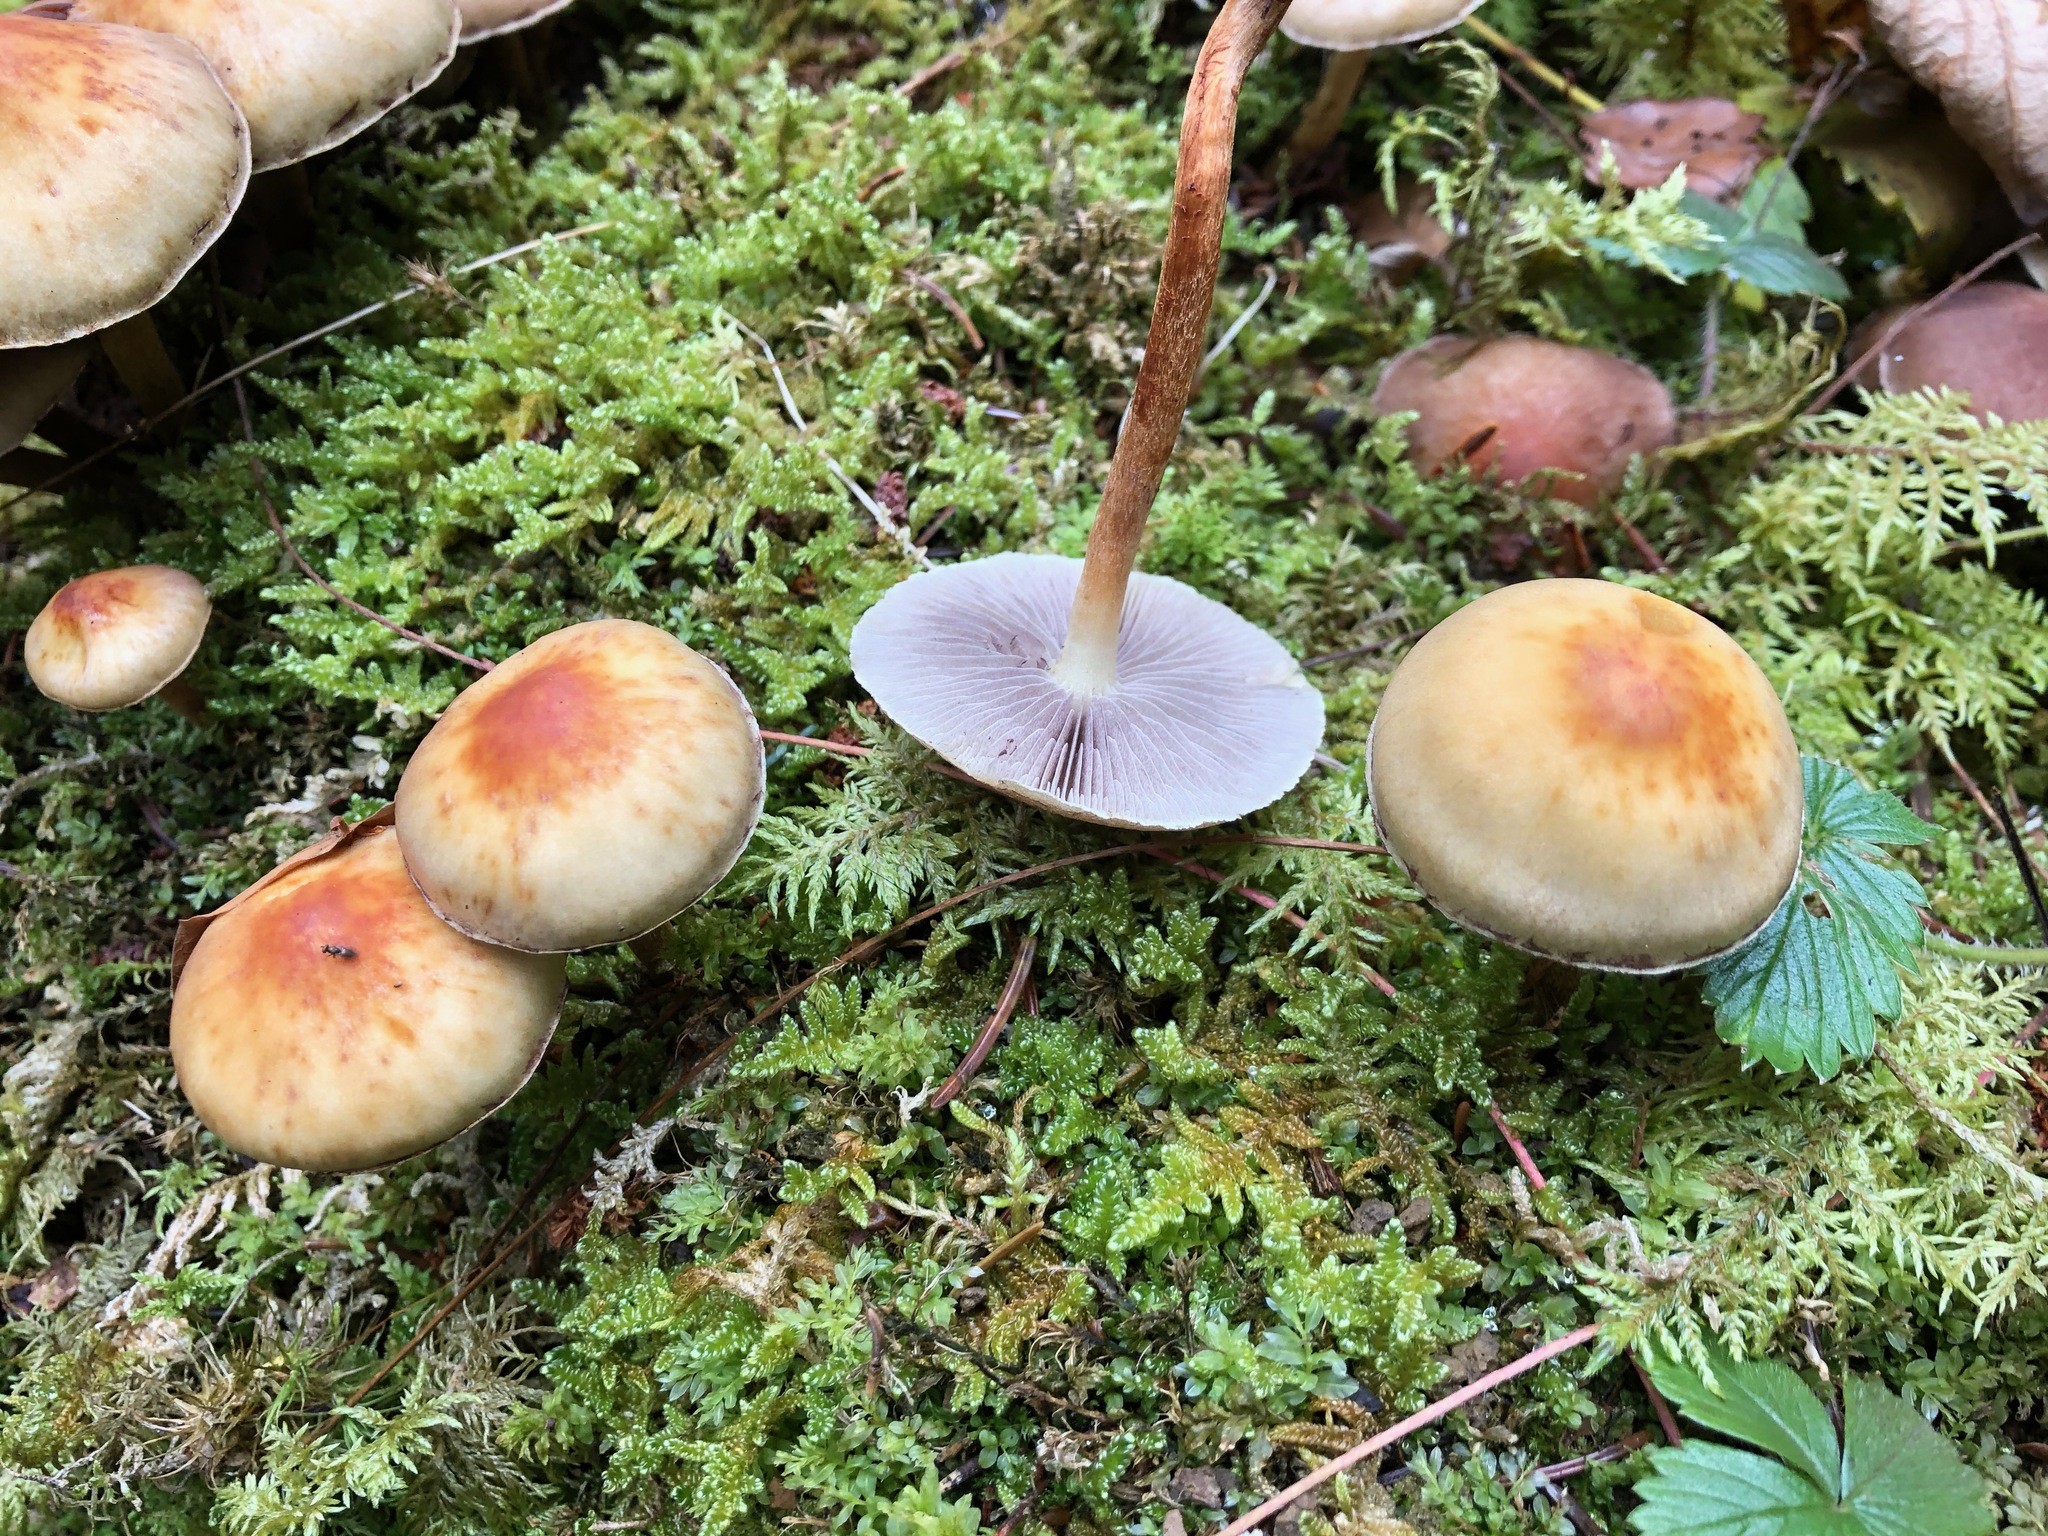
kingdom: Fungi
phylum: Basidiomycota
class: Agaricomycetes
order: Agaricales
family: Strophariaceae
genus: Hypholoma
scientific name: Hypholoma capnoides
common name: Conifer tuft
